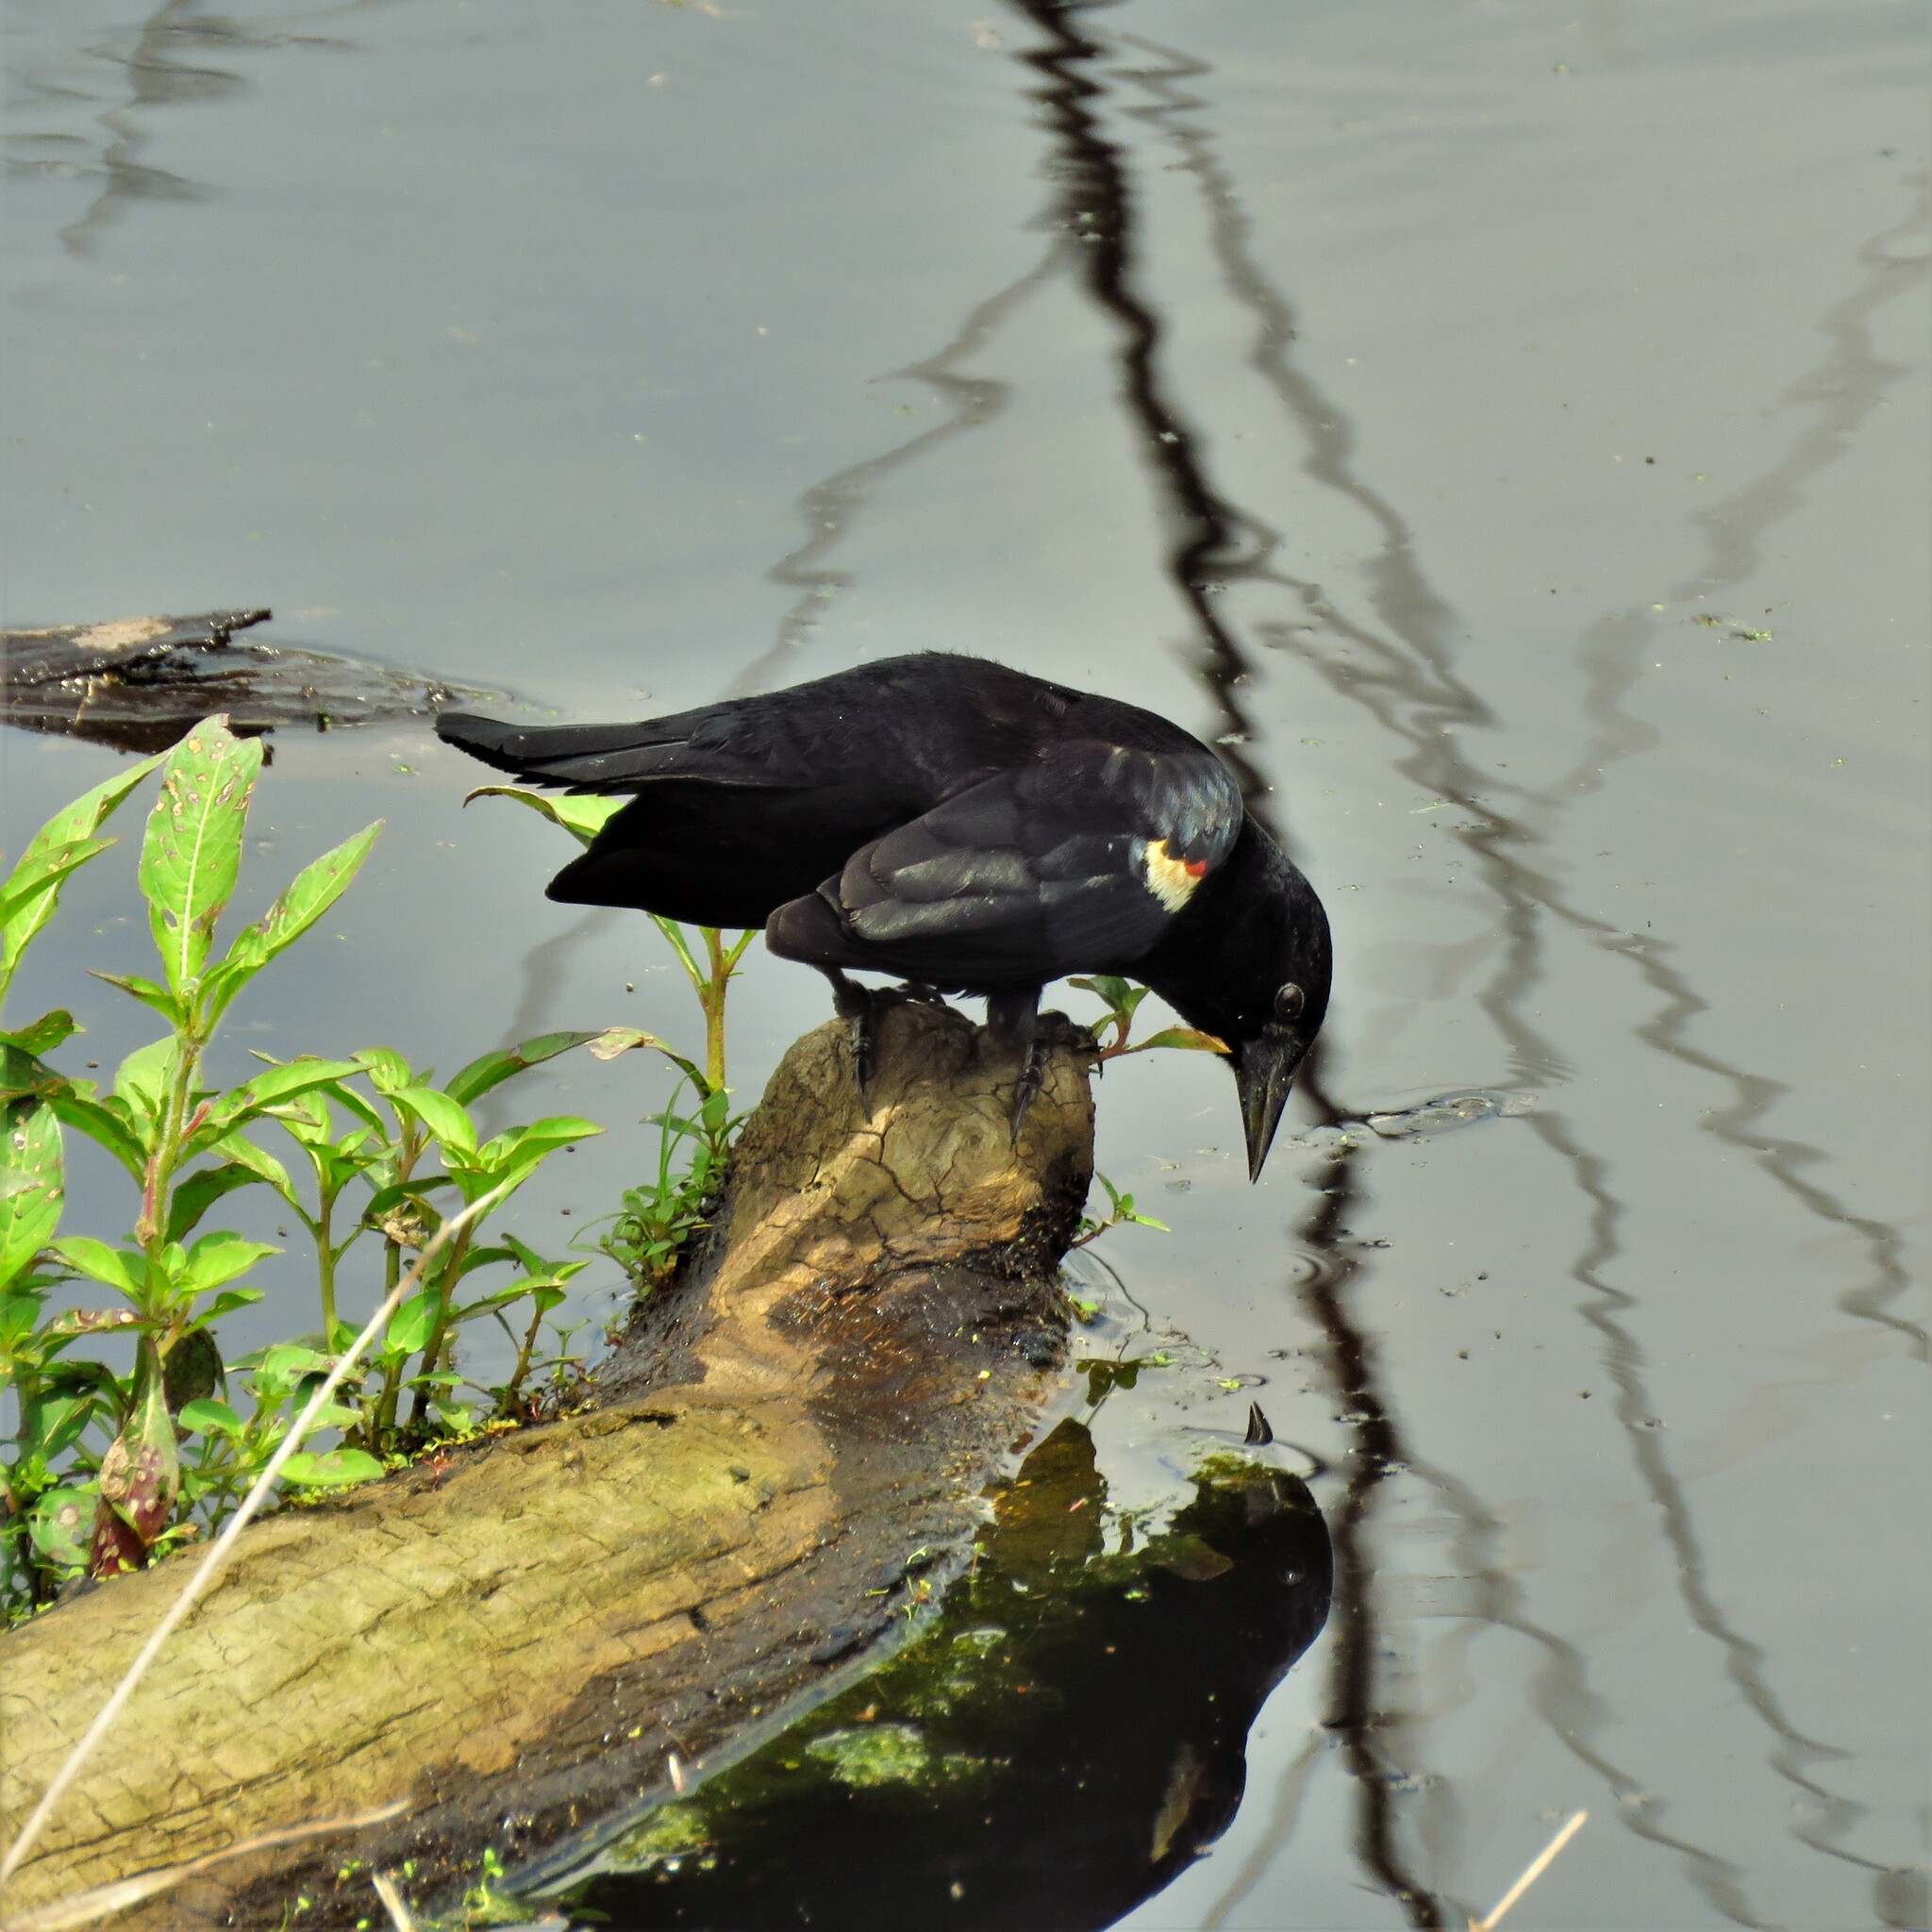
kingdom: Animalia
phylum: Chordata
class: Aves
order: Passeriformes
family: Icteridae
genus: Agelaius
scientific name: Agelaius phoeniceus
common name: Red-winged blackbird
